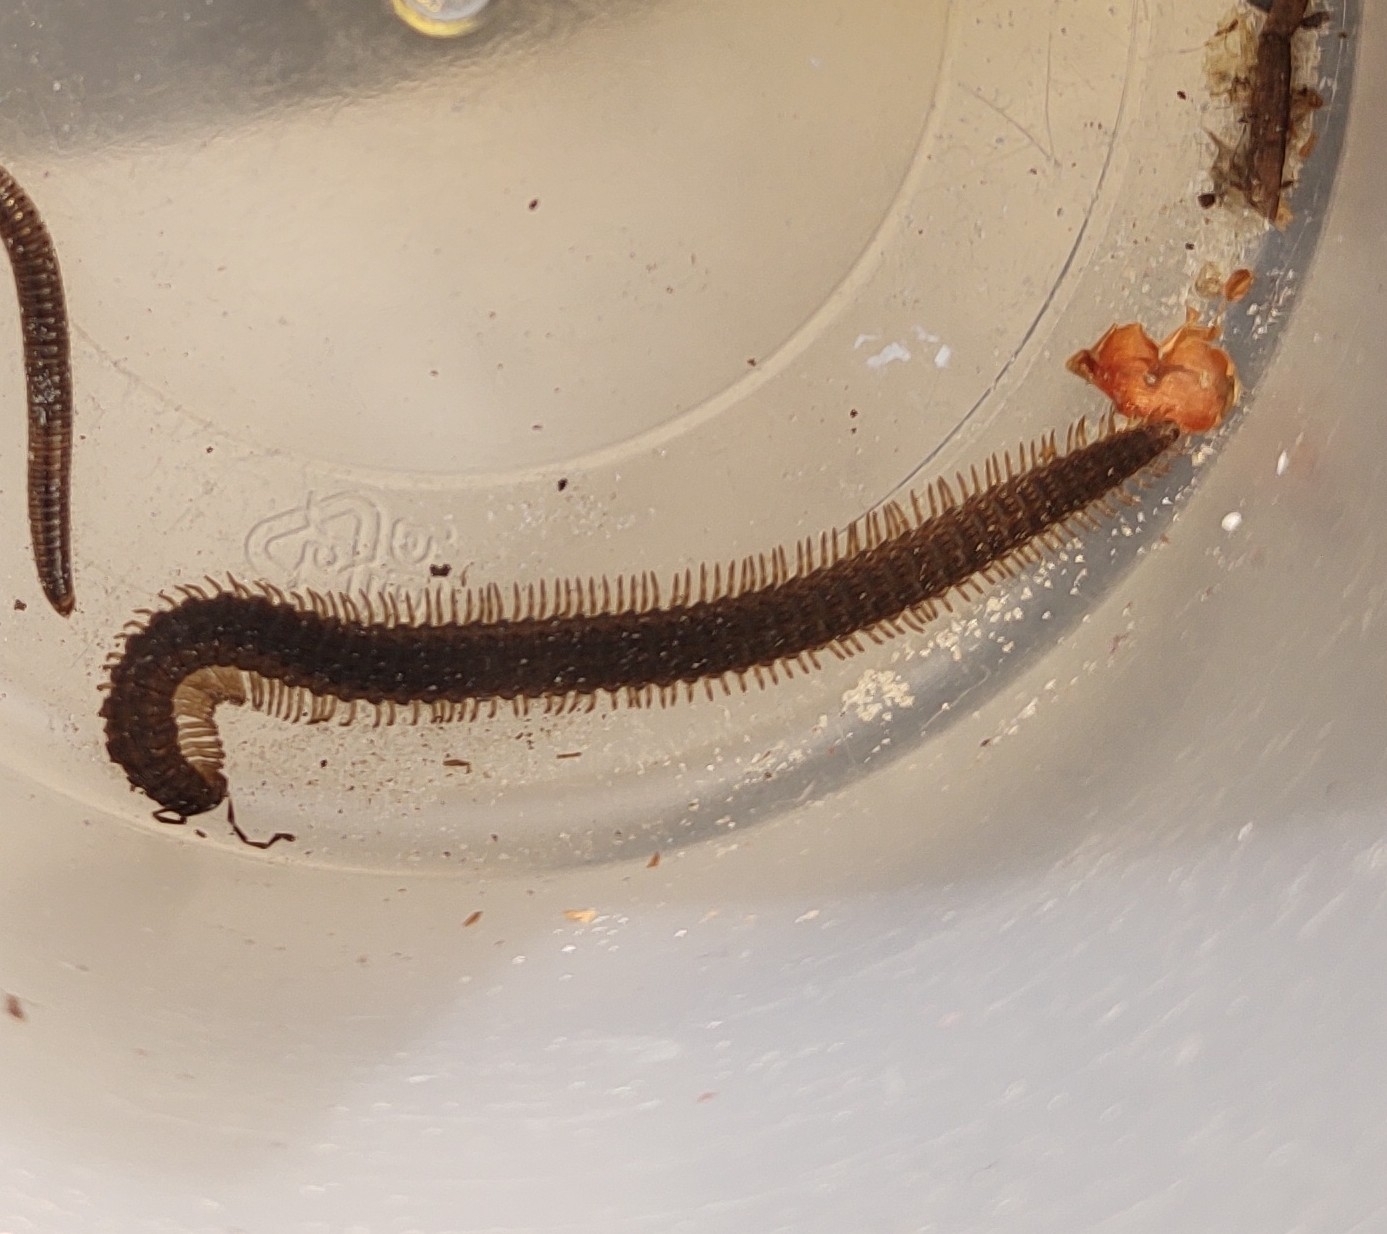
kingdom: Animalia
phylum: Arthropoda
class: Diplopoda
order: Callipodida
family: Abacionidae
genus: Abacion
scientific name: Abacion tesselatum
